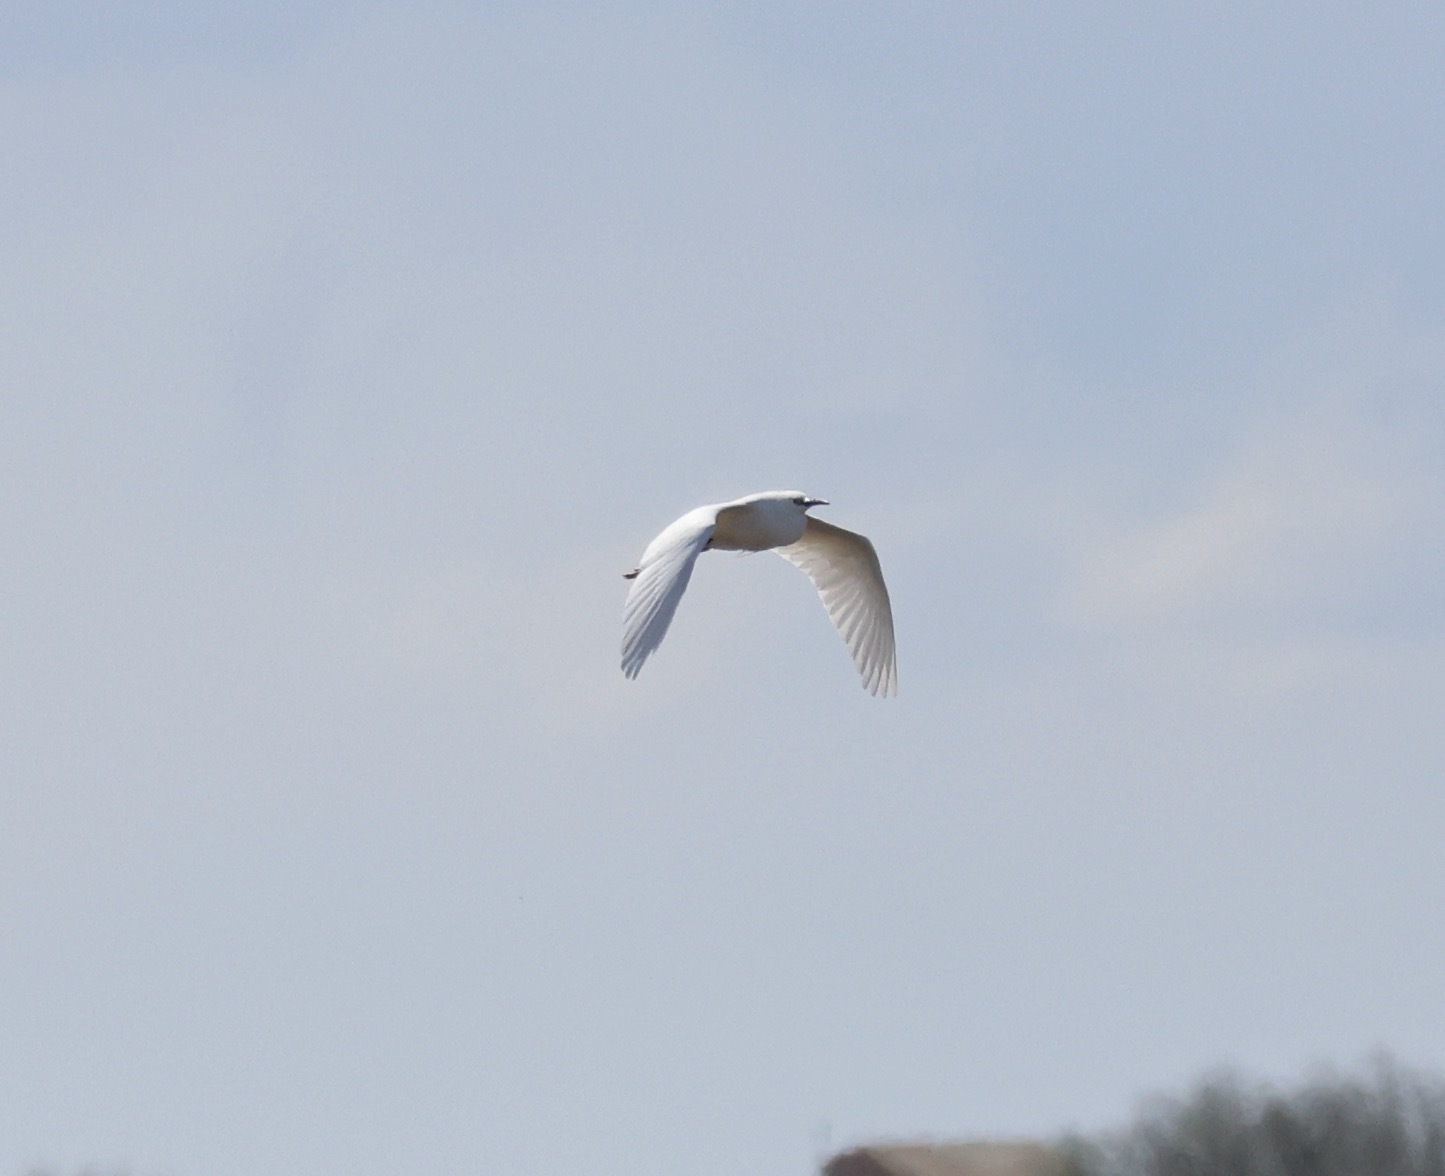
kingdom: Animalia
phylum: Chordata
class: Aves
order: Pelecaniformes
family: Ardeidae
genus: Egretta
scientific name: Egretta garzetta
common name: Little egret
